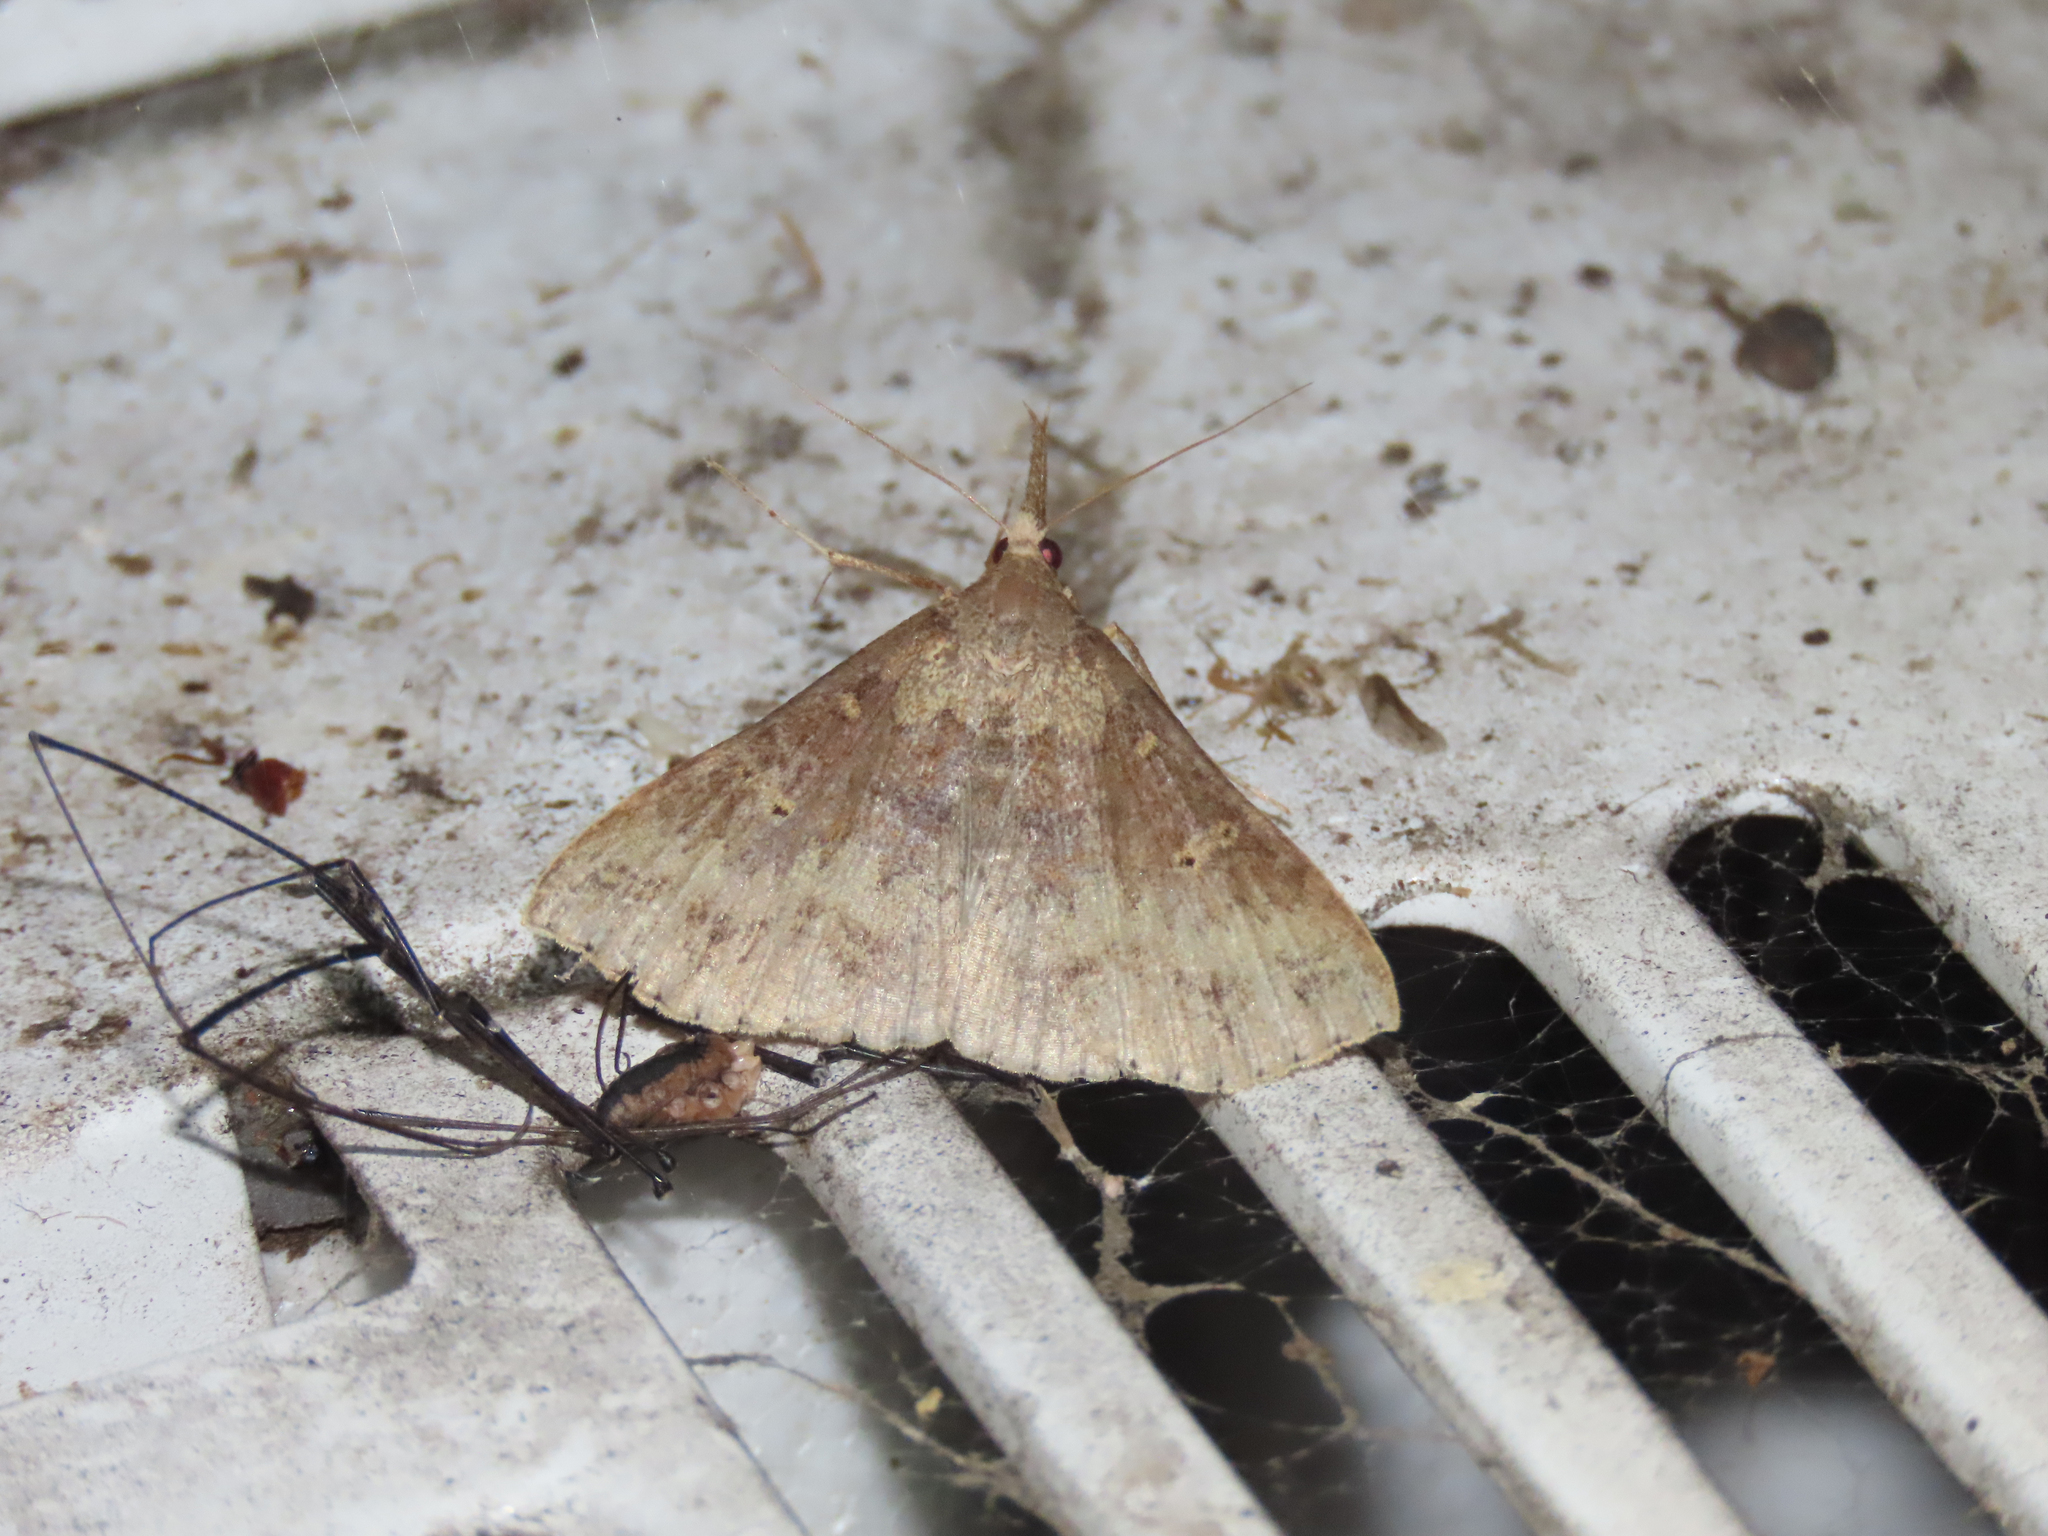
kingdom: Animalia
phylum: Arthropoda
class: Insecta
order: Lepidoptera
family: Erebidae
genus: Renia
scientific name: Renia discoloralis
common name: Discolored renia moth
